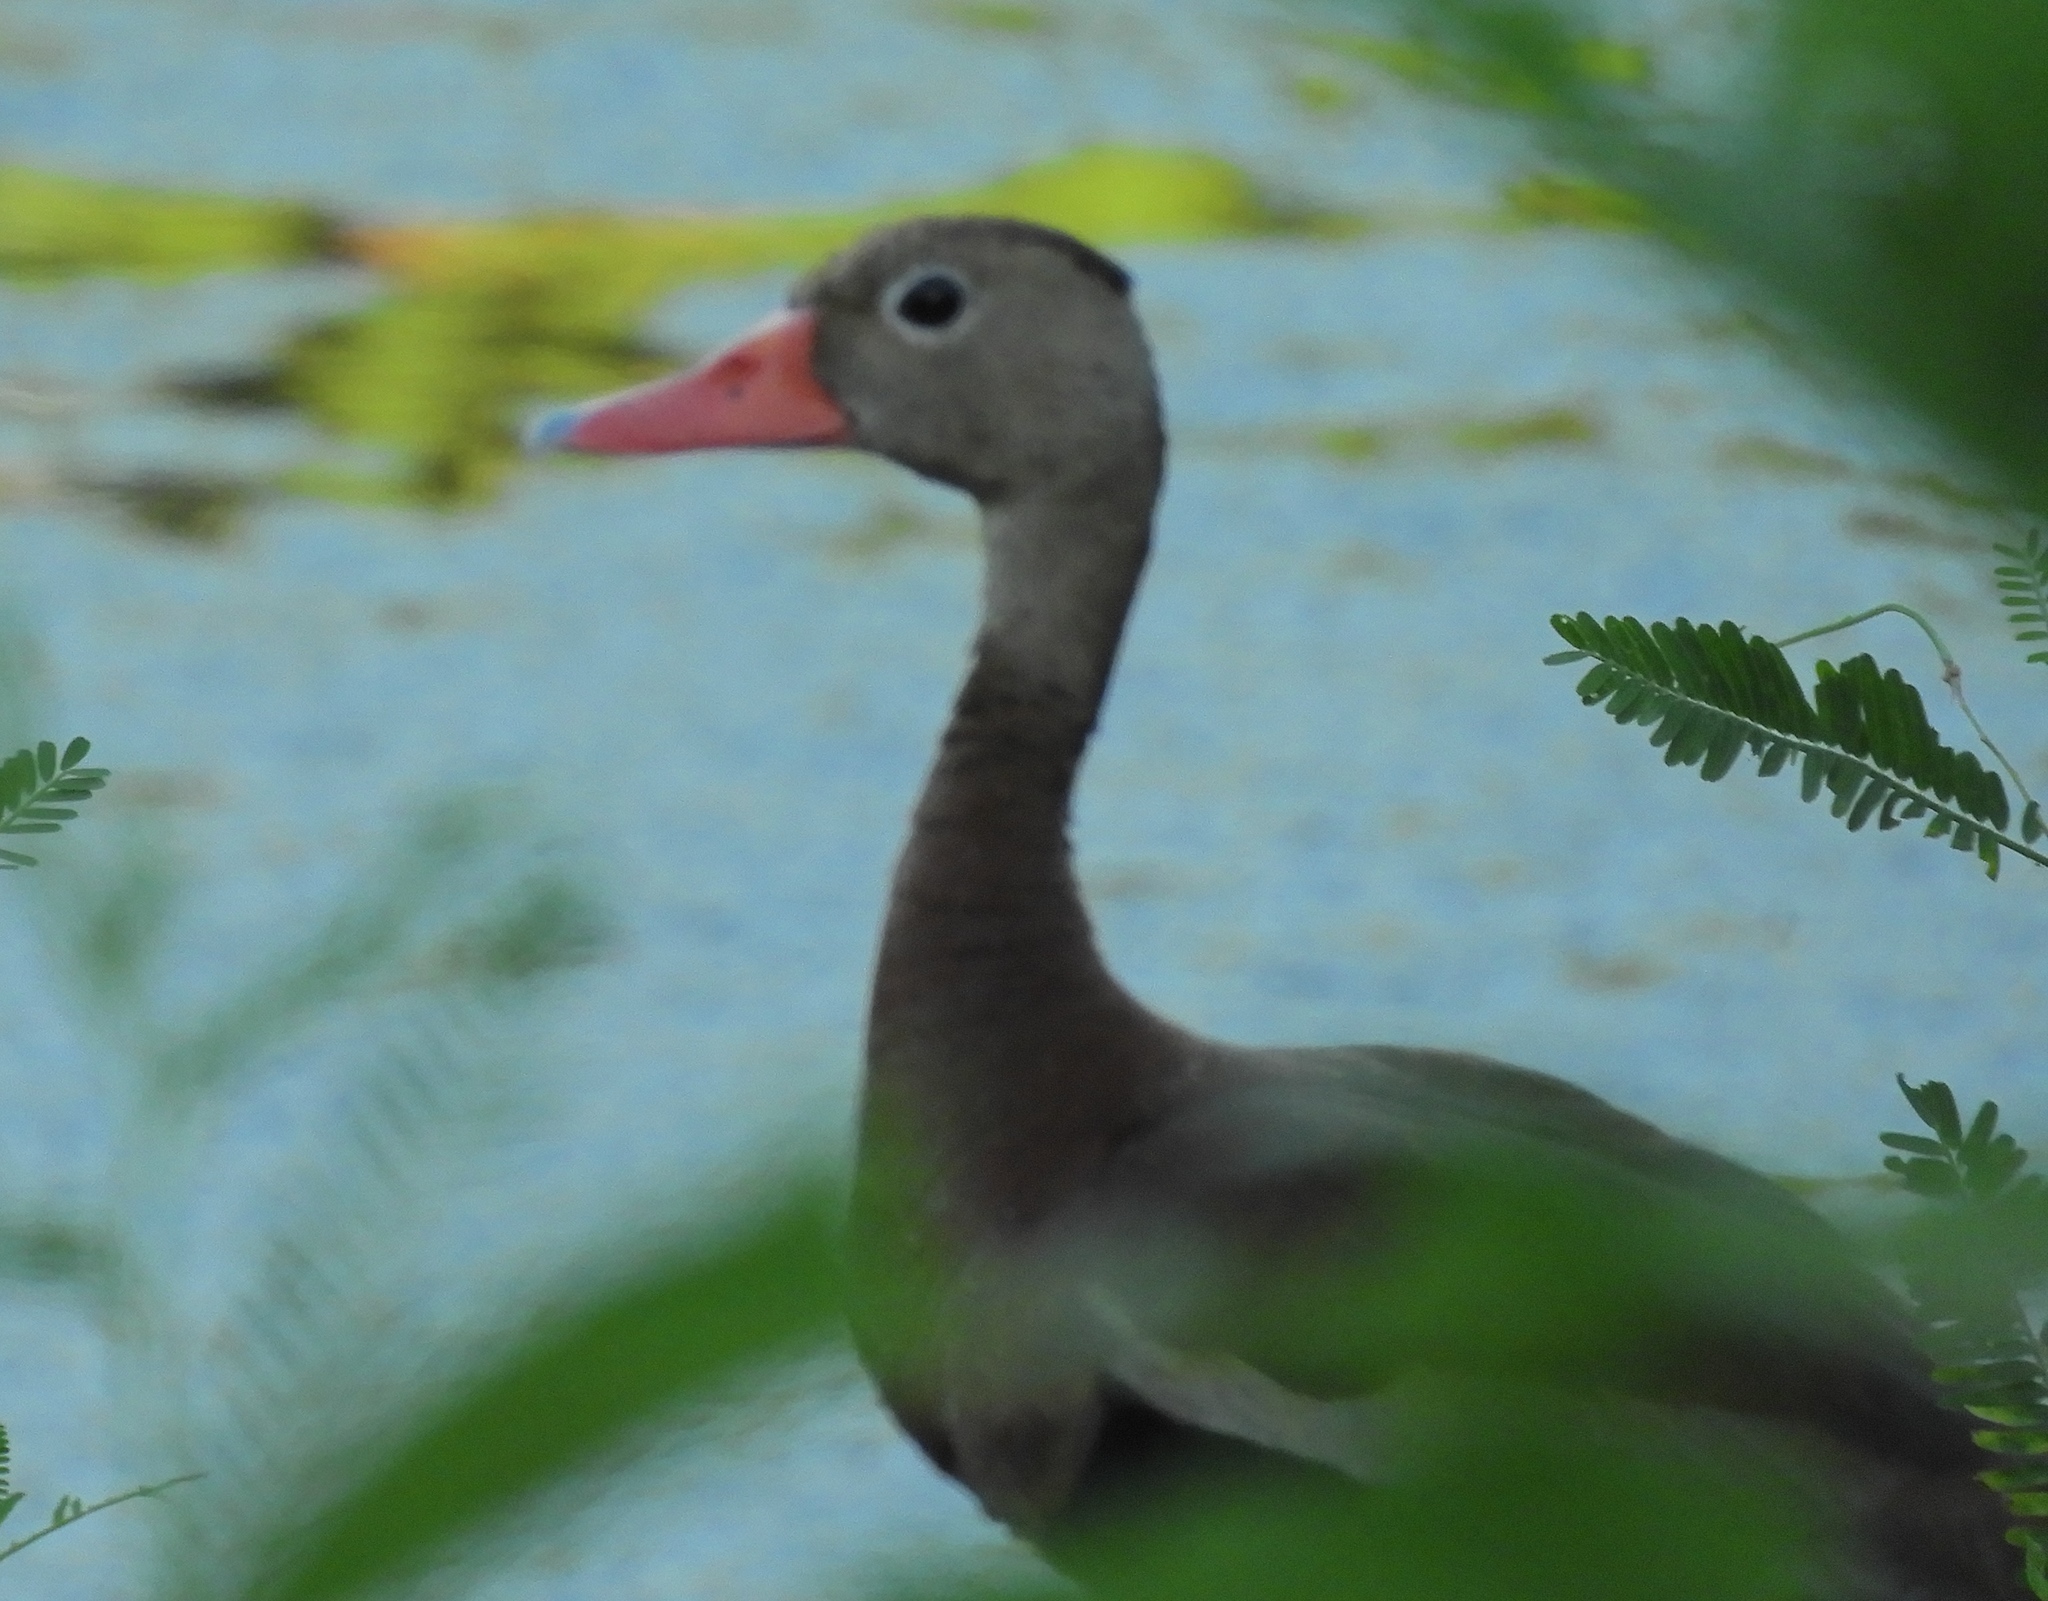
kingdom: Animalia
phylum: Chordata
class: Aves
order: Anseriformes
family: Anatidae
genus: Dendrocygna
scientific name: Dendrocygna autumnalis
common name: Black-bellied whistling duck
